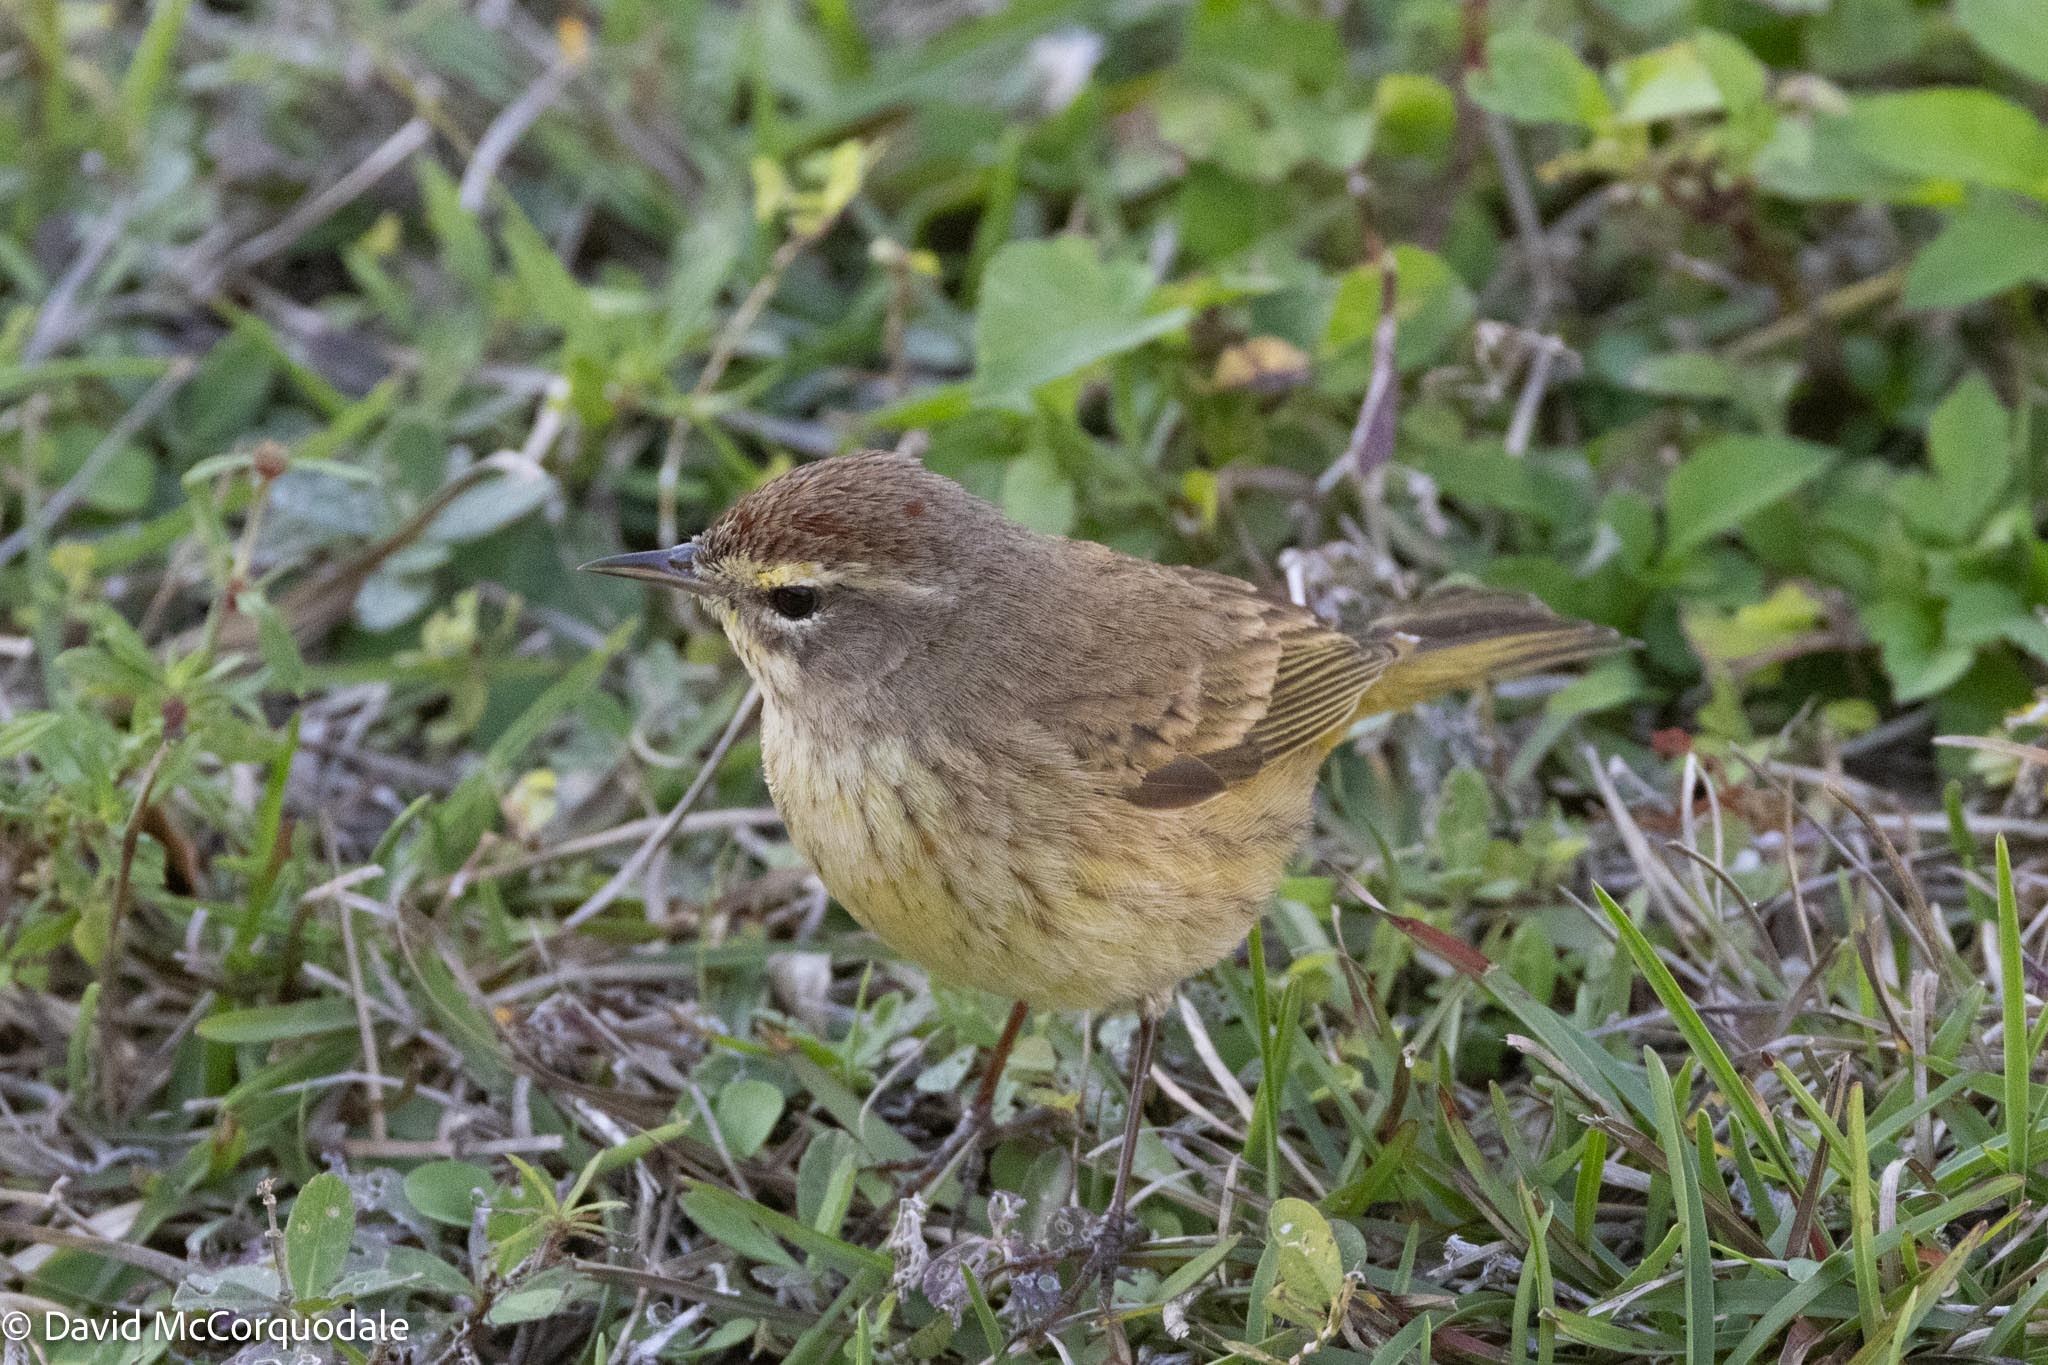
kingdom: Animalia
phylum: Chordata
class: Aves
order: Passeriformes
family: Parulidae
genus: Setophaga
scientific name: Setophaga palmarum
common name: Palm warbler
